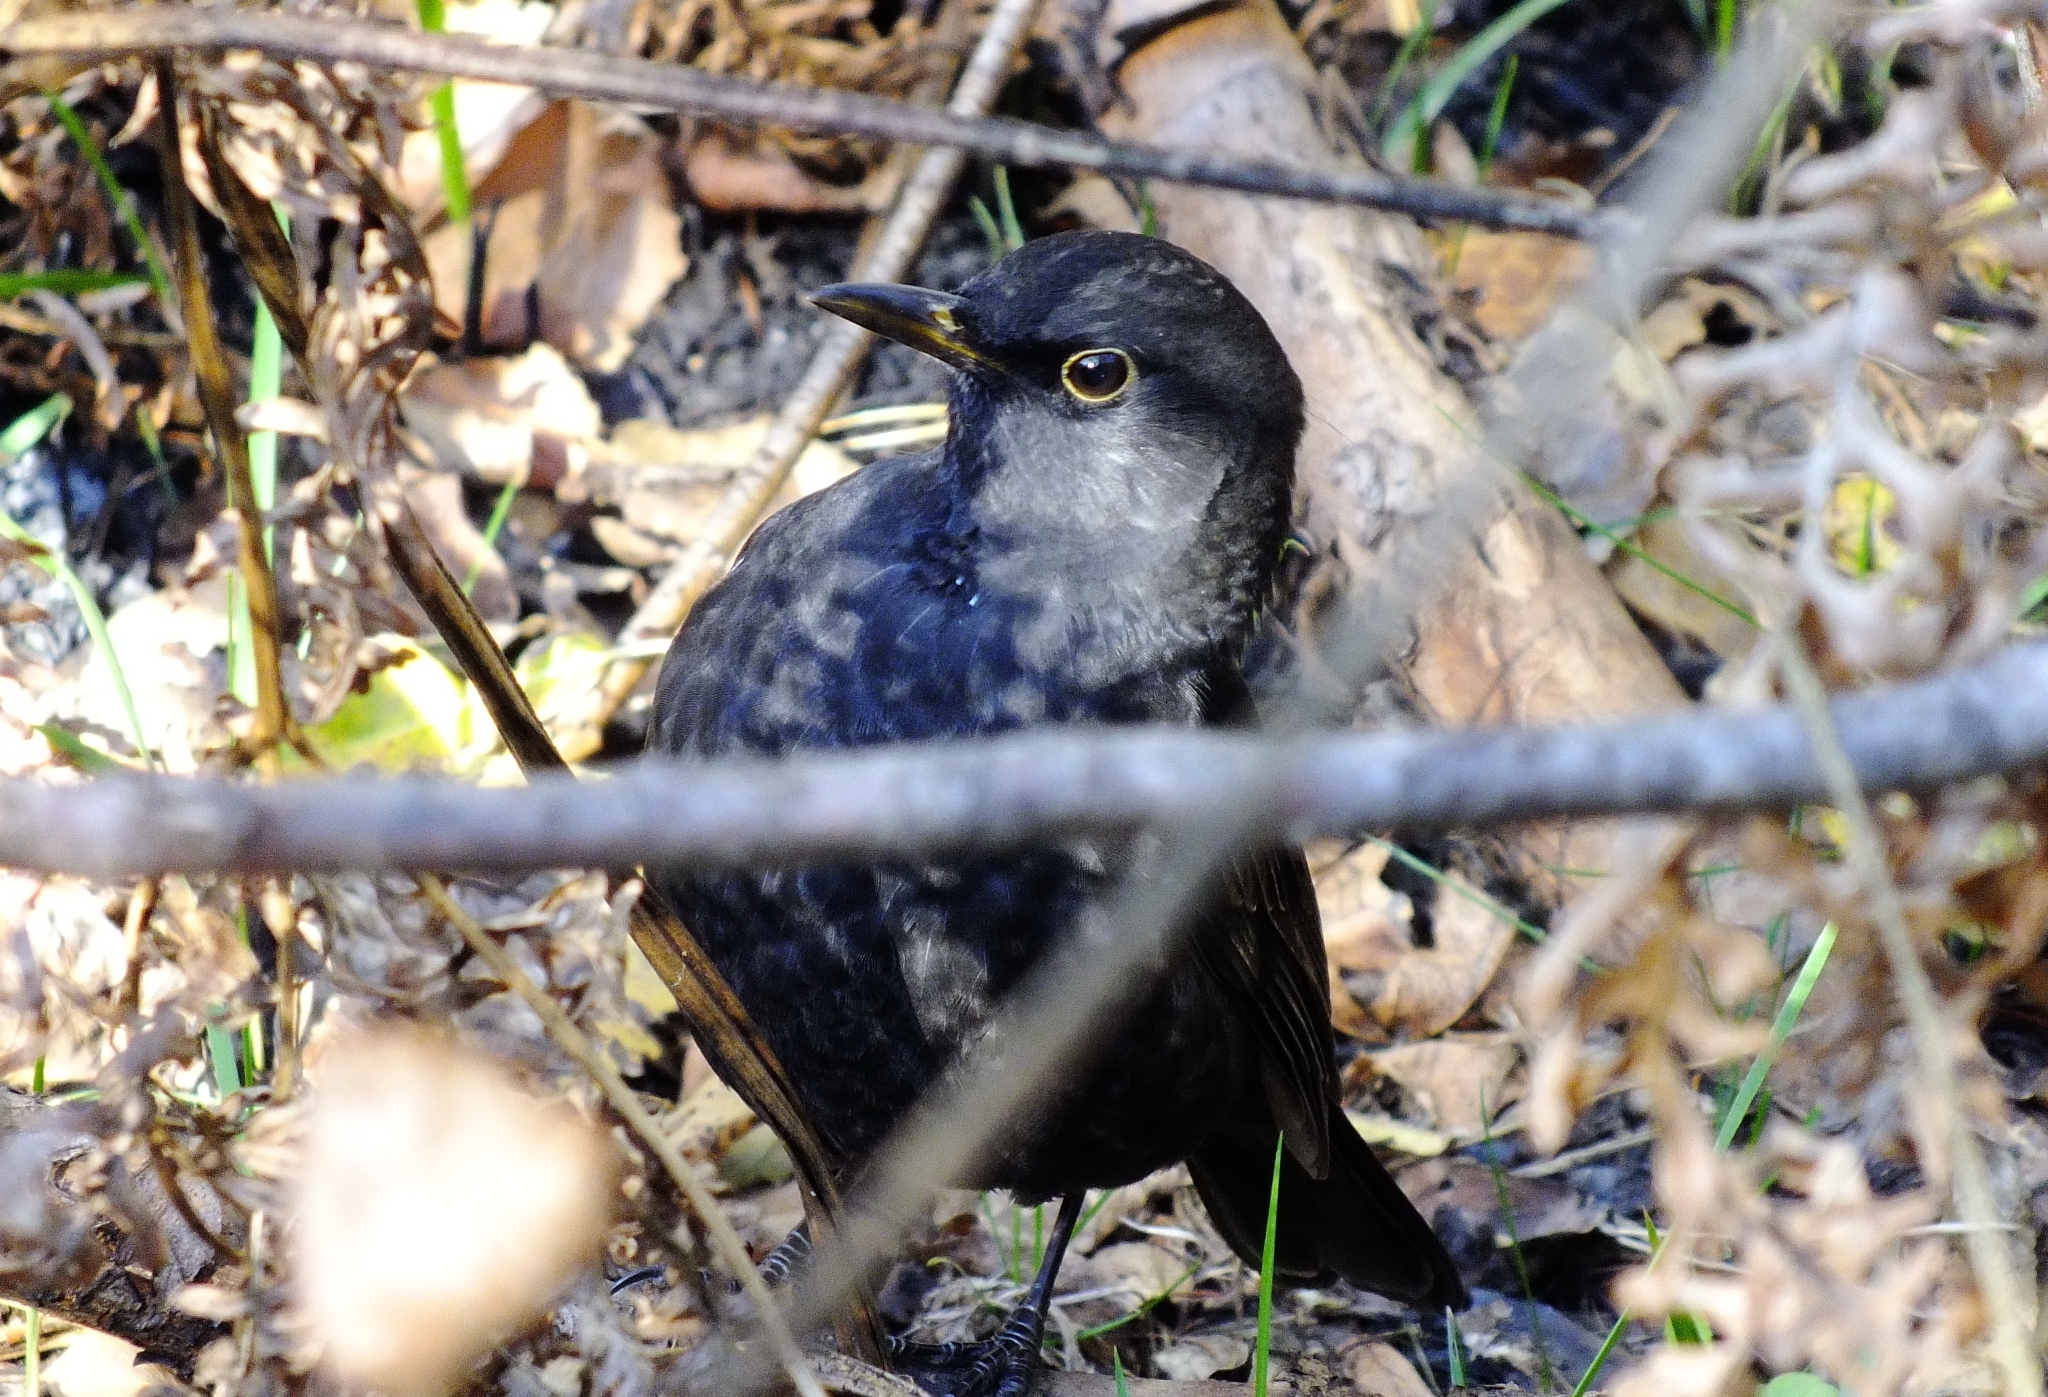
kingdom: Animalia
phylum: Chordata
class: Aves
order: Passeriformes
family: Turdidae
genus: Turdus
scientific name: Turdus merula
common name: Common blackbird
